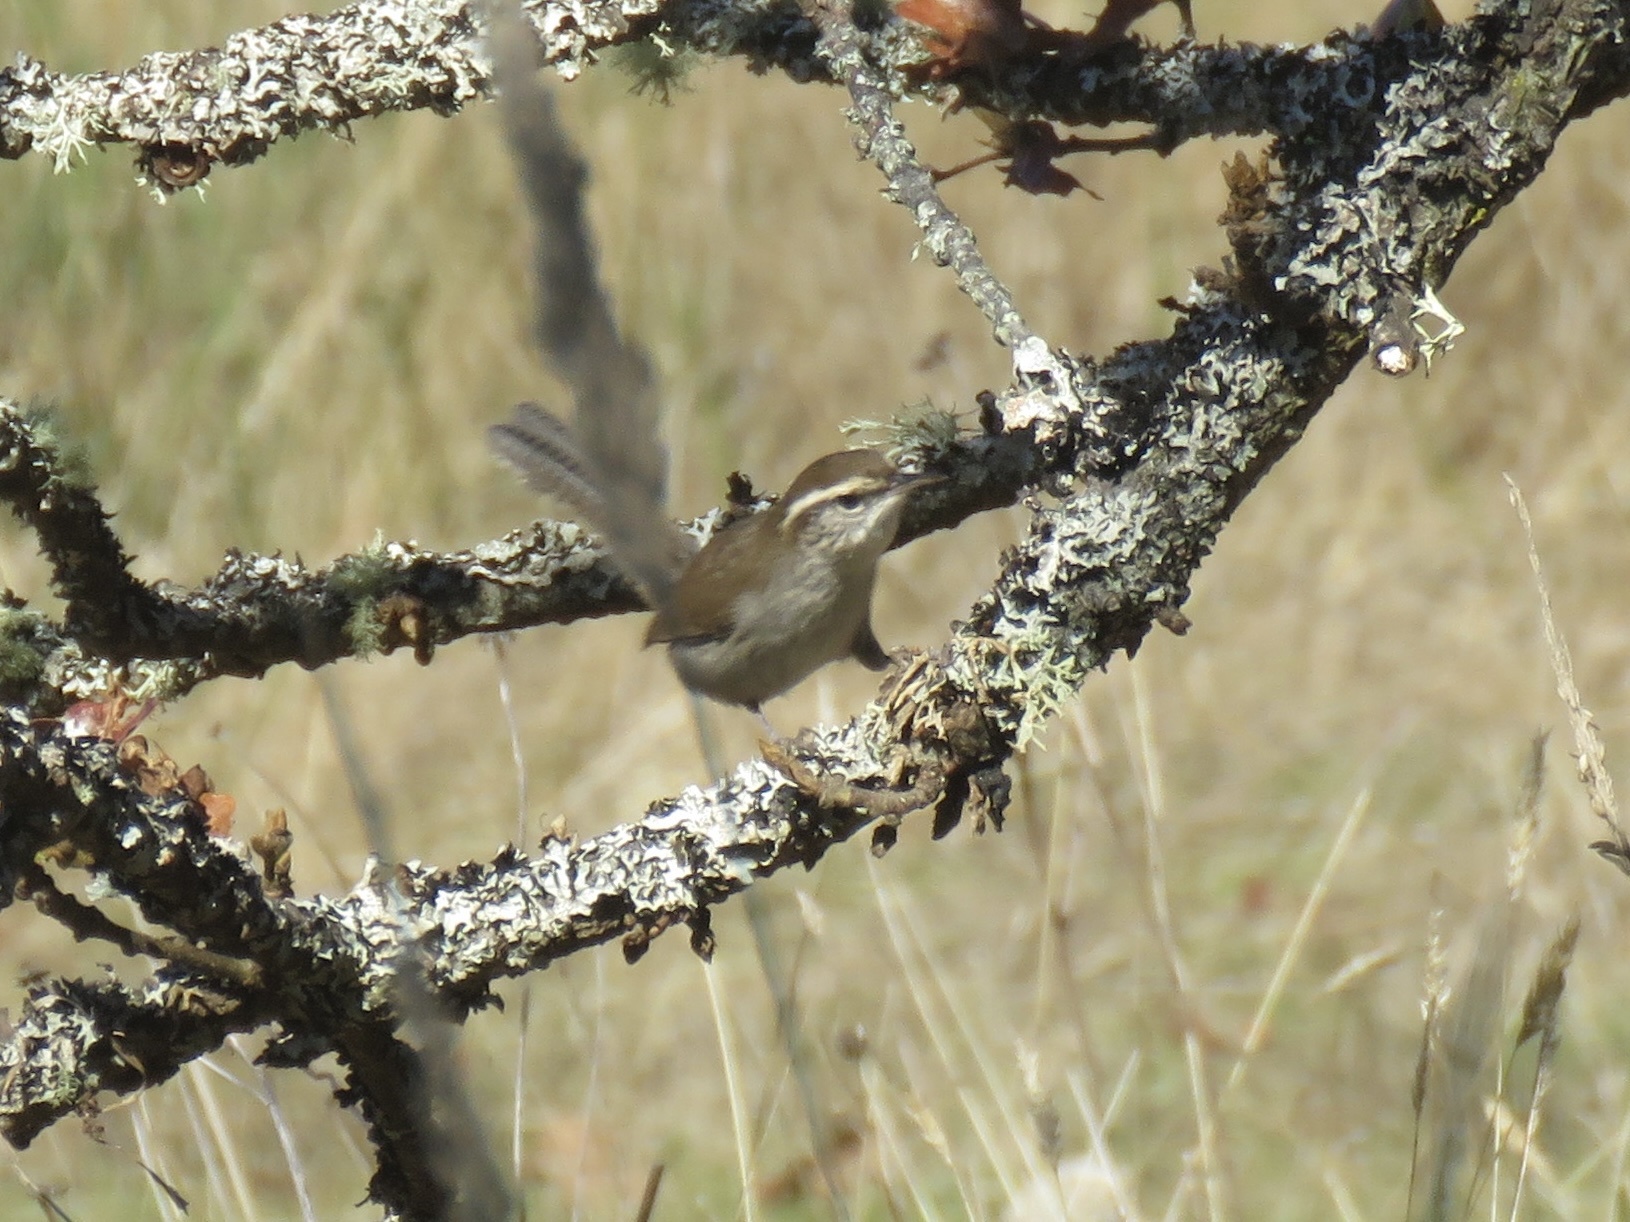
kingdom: Animalia
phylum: Chordata
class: Aves
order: Passeriformes
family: Troglodytidae
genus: Thryomanes
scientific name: Thryomanes bewickii
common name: Bewick's wren
